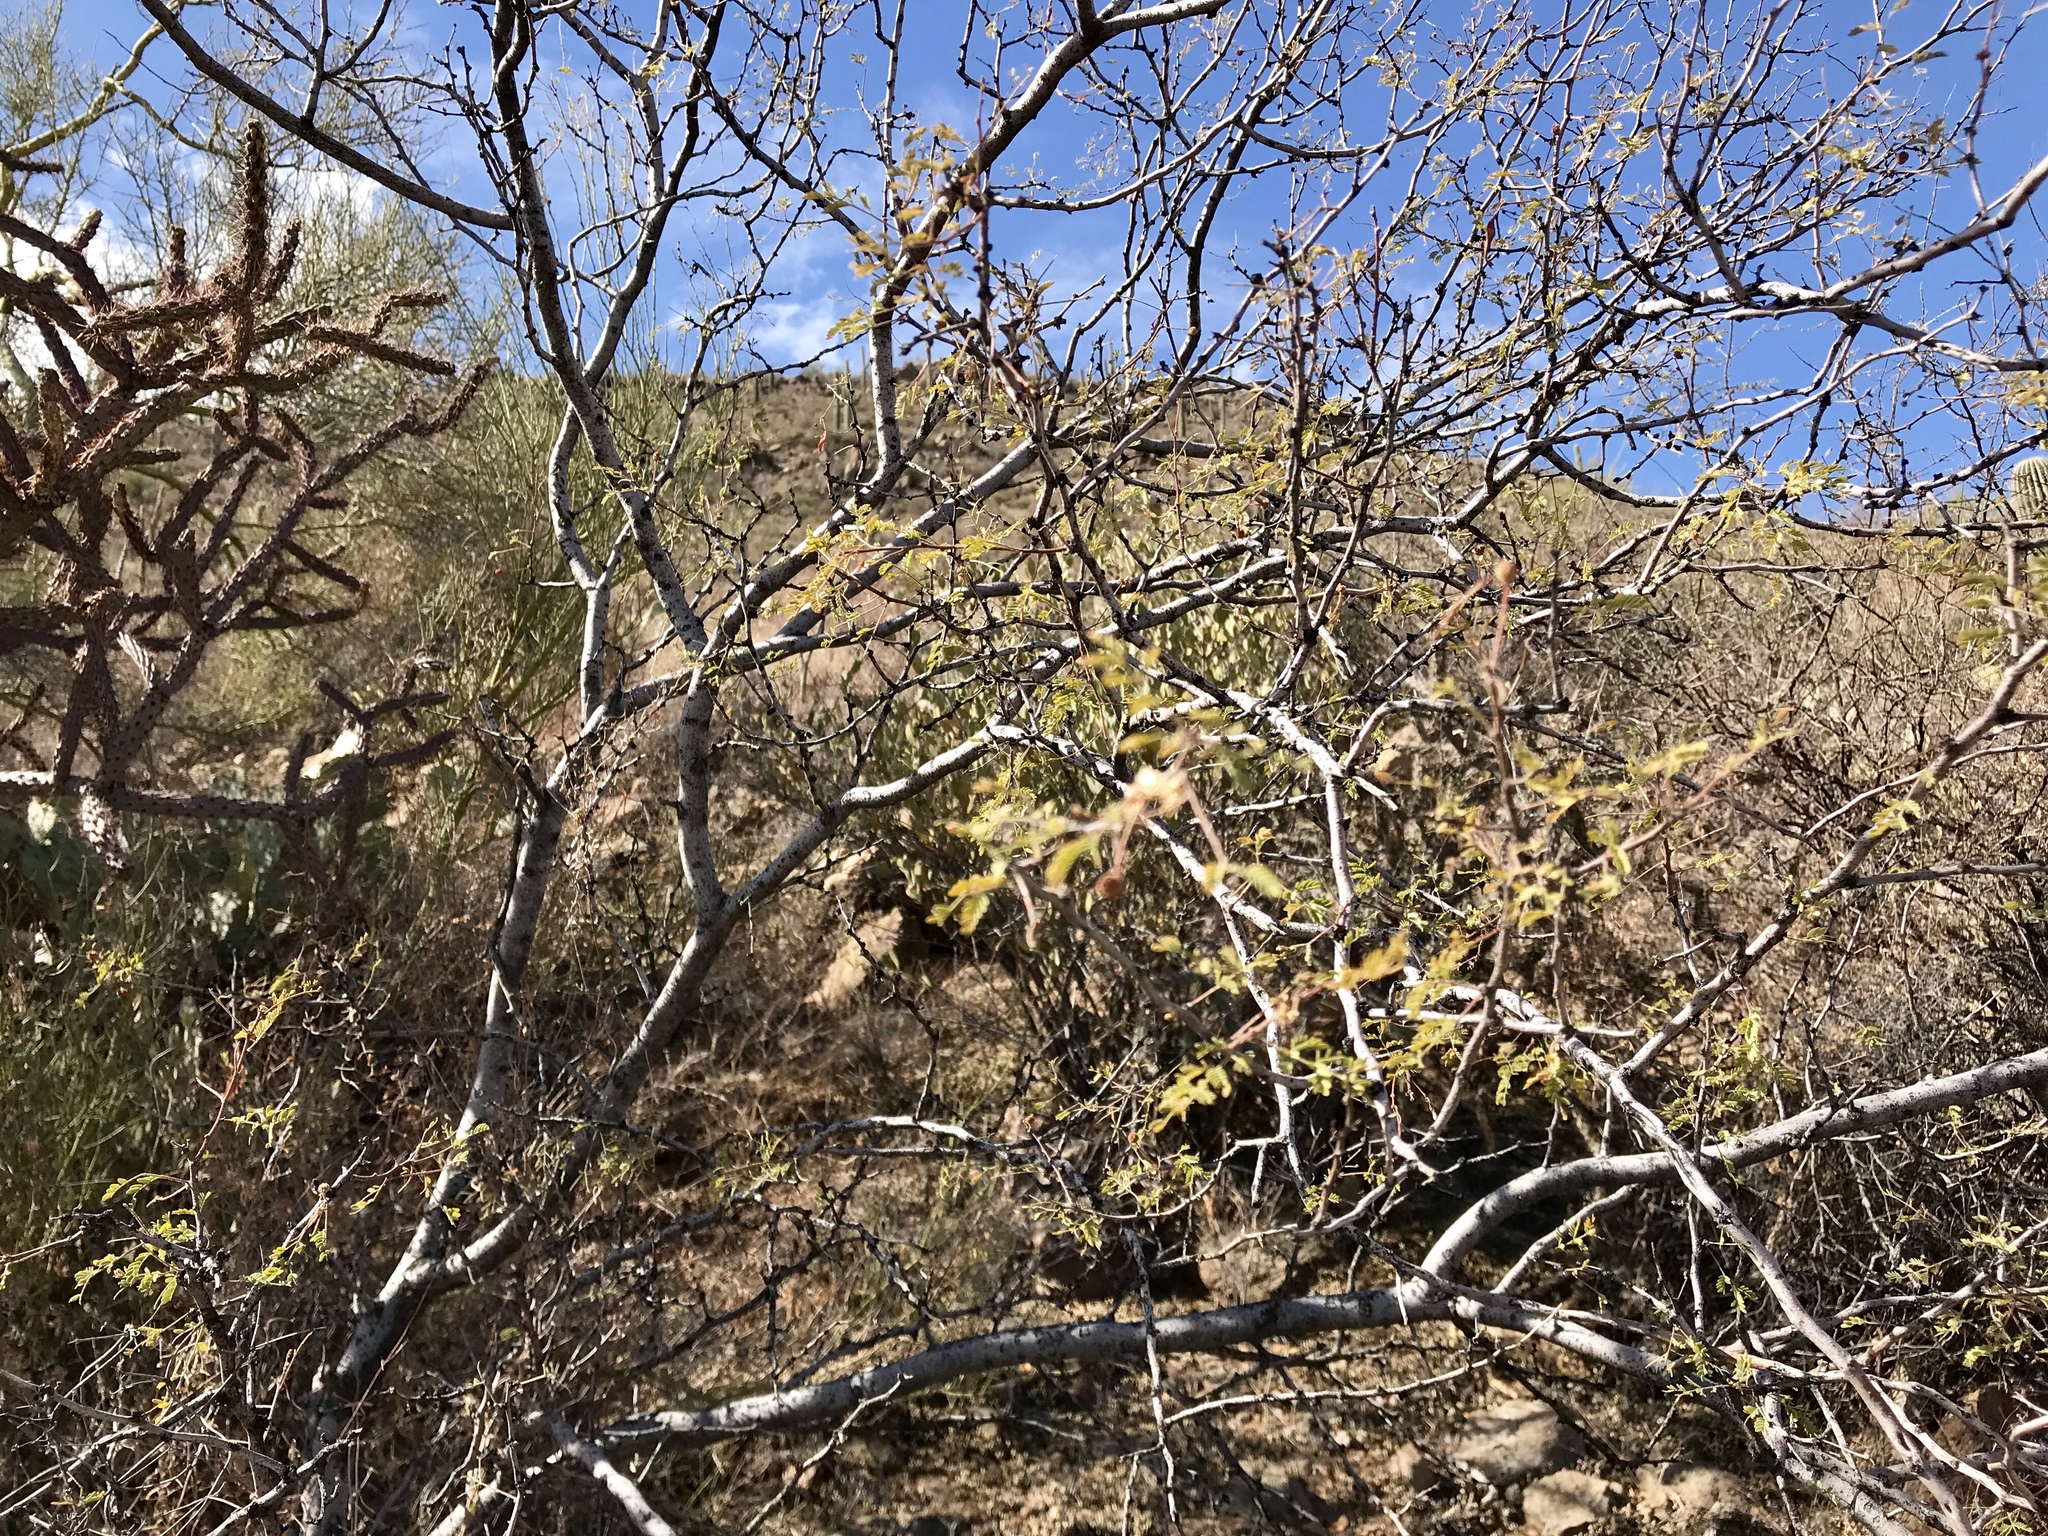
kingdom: Plantae
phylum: Tracheophyta
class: Magnoliopsida
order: Fabales
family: Fabaceae
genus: Vachellia
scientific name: Vachellia constricta
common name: Mescat acacia
